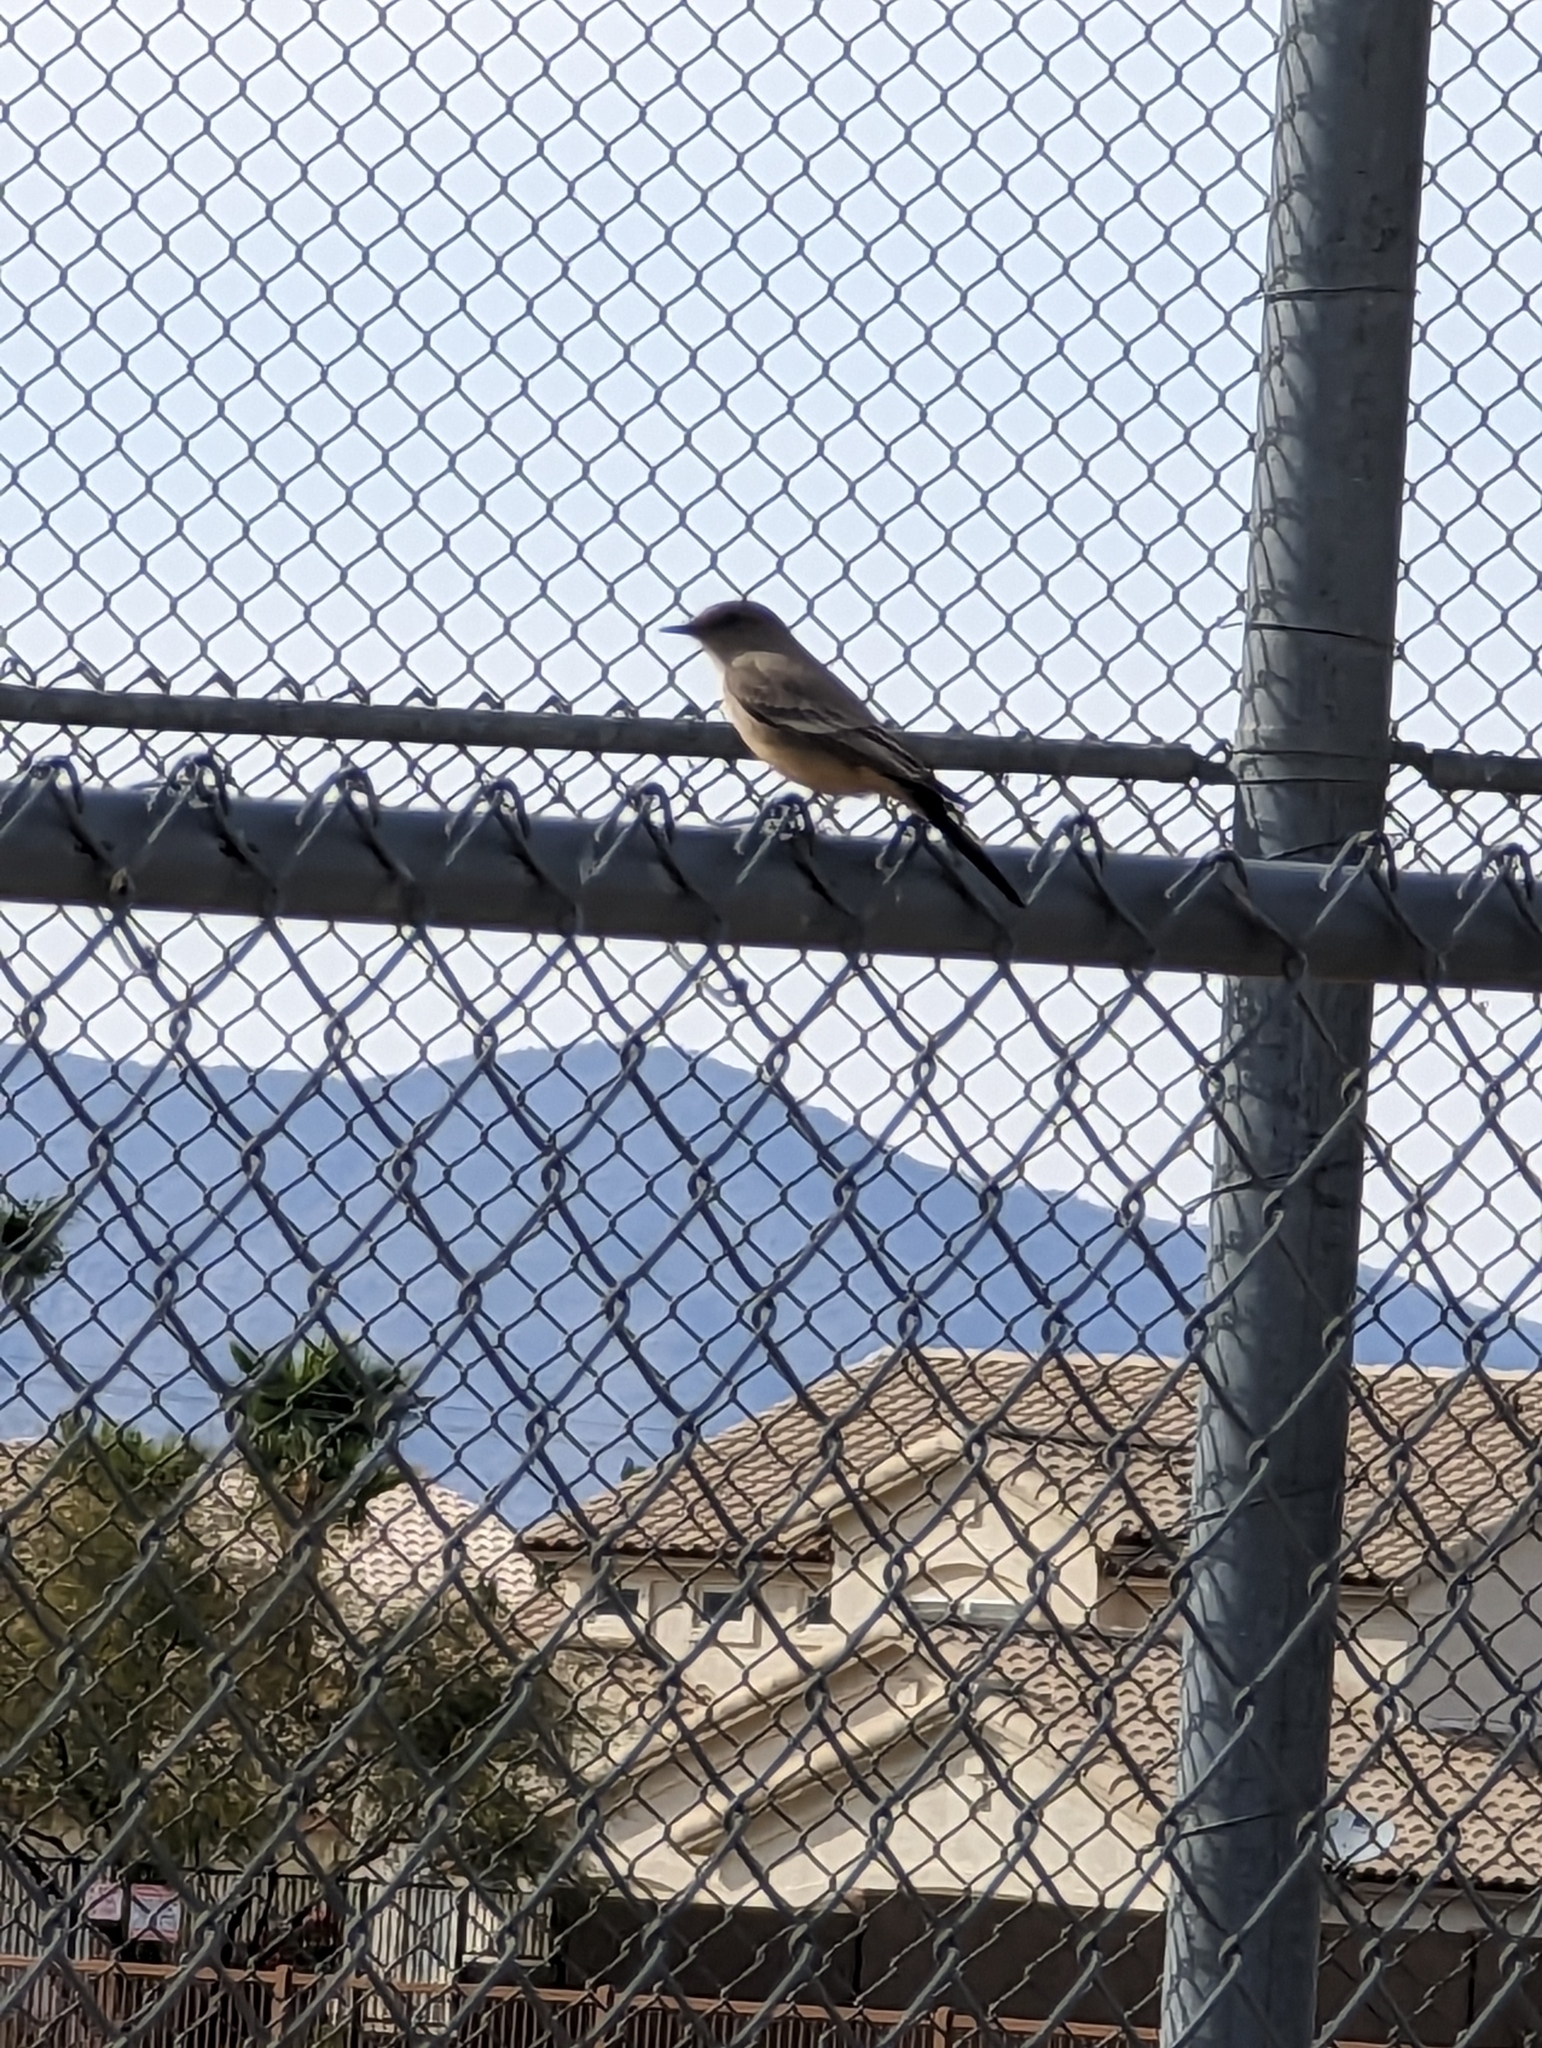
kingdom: Animalia
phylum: Chordata
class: Aves
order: Passeriformes
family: Tyrannidae
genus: Sayornis
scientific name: Sayornis saya
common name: Say's phoebe
